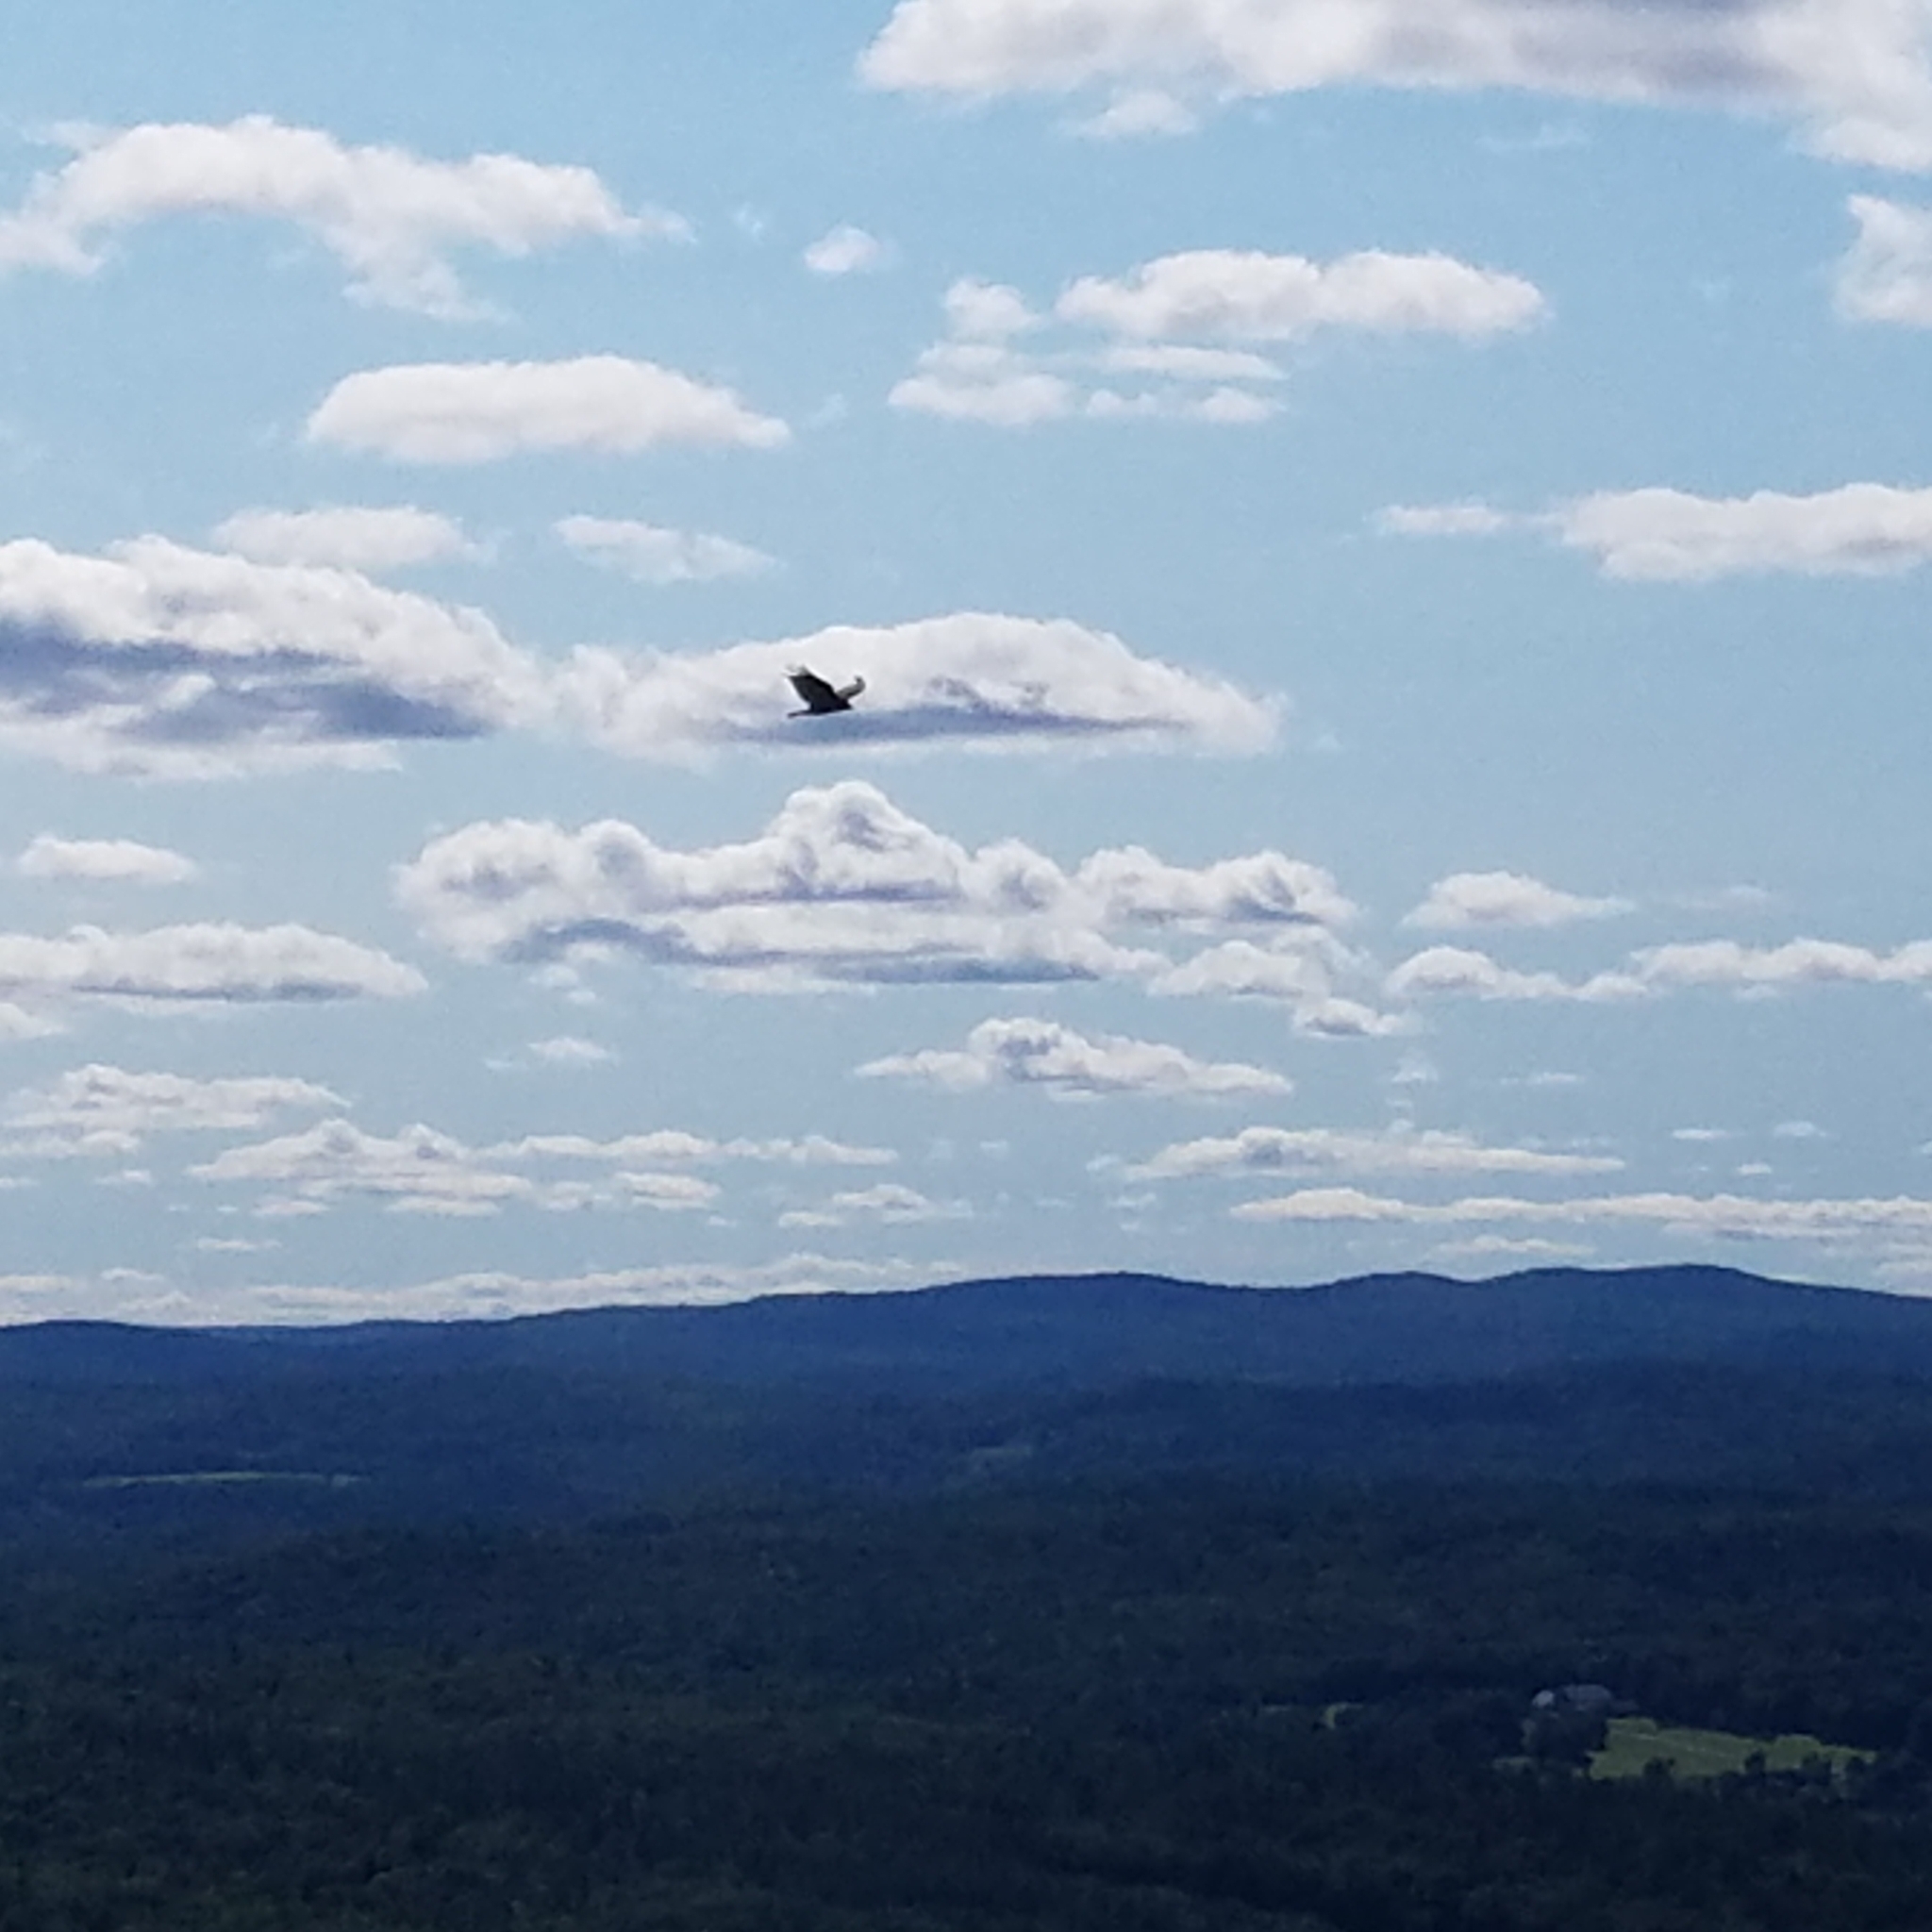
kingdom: Animalia
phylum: Chordata
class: Aves
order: Accipitriformes
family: Cathartidae
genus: Cathartes
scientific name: Cathartes aura
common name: Turkey vulture
